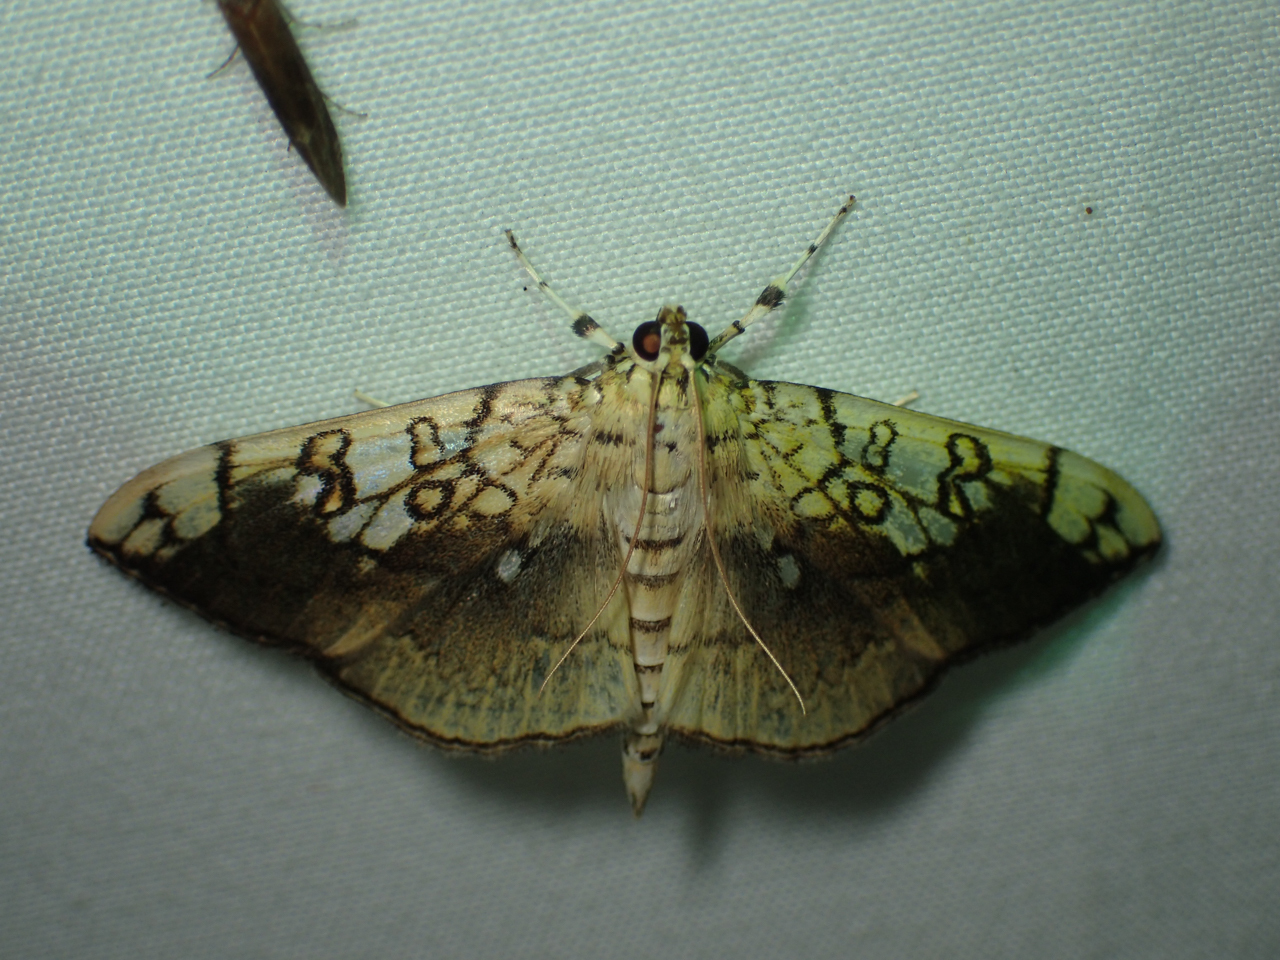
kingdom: Animalia
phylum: Arthropoda
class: Insecta
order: Lepidoptera
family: Crambidae
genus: Pantographa
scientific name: Pantographa limata
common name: Basswood leafroller moth
